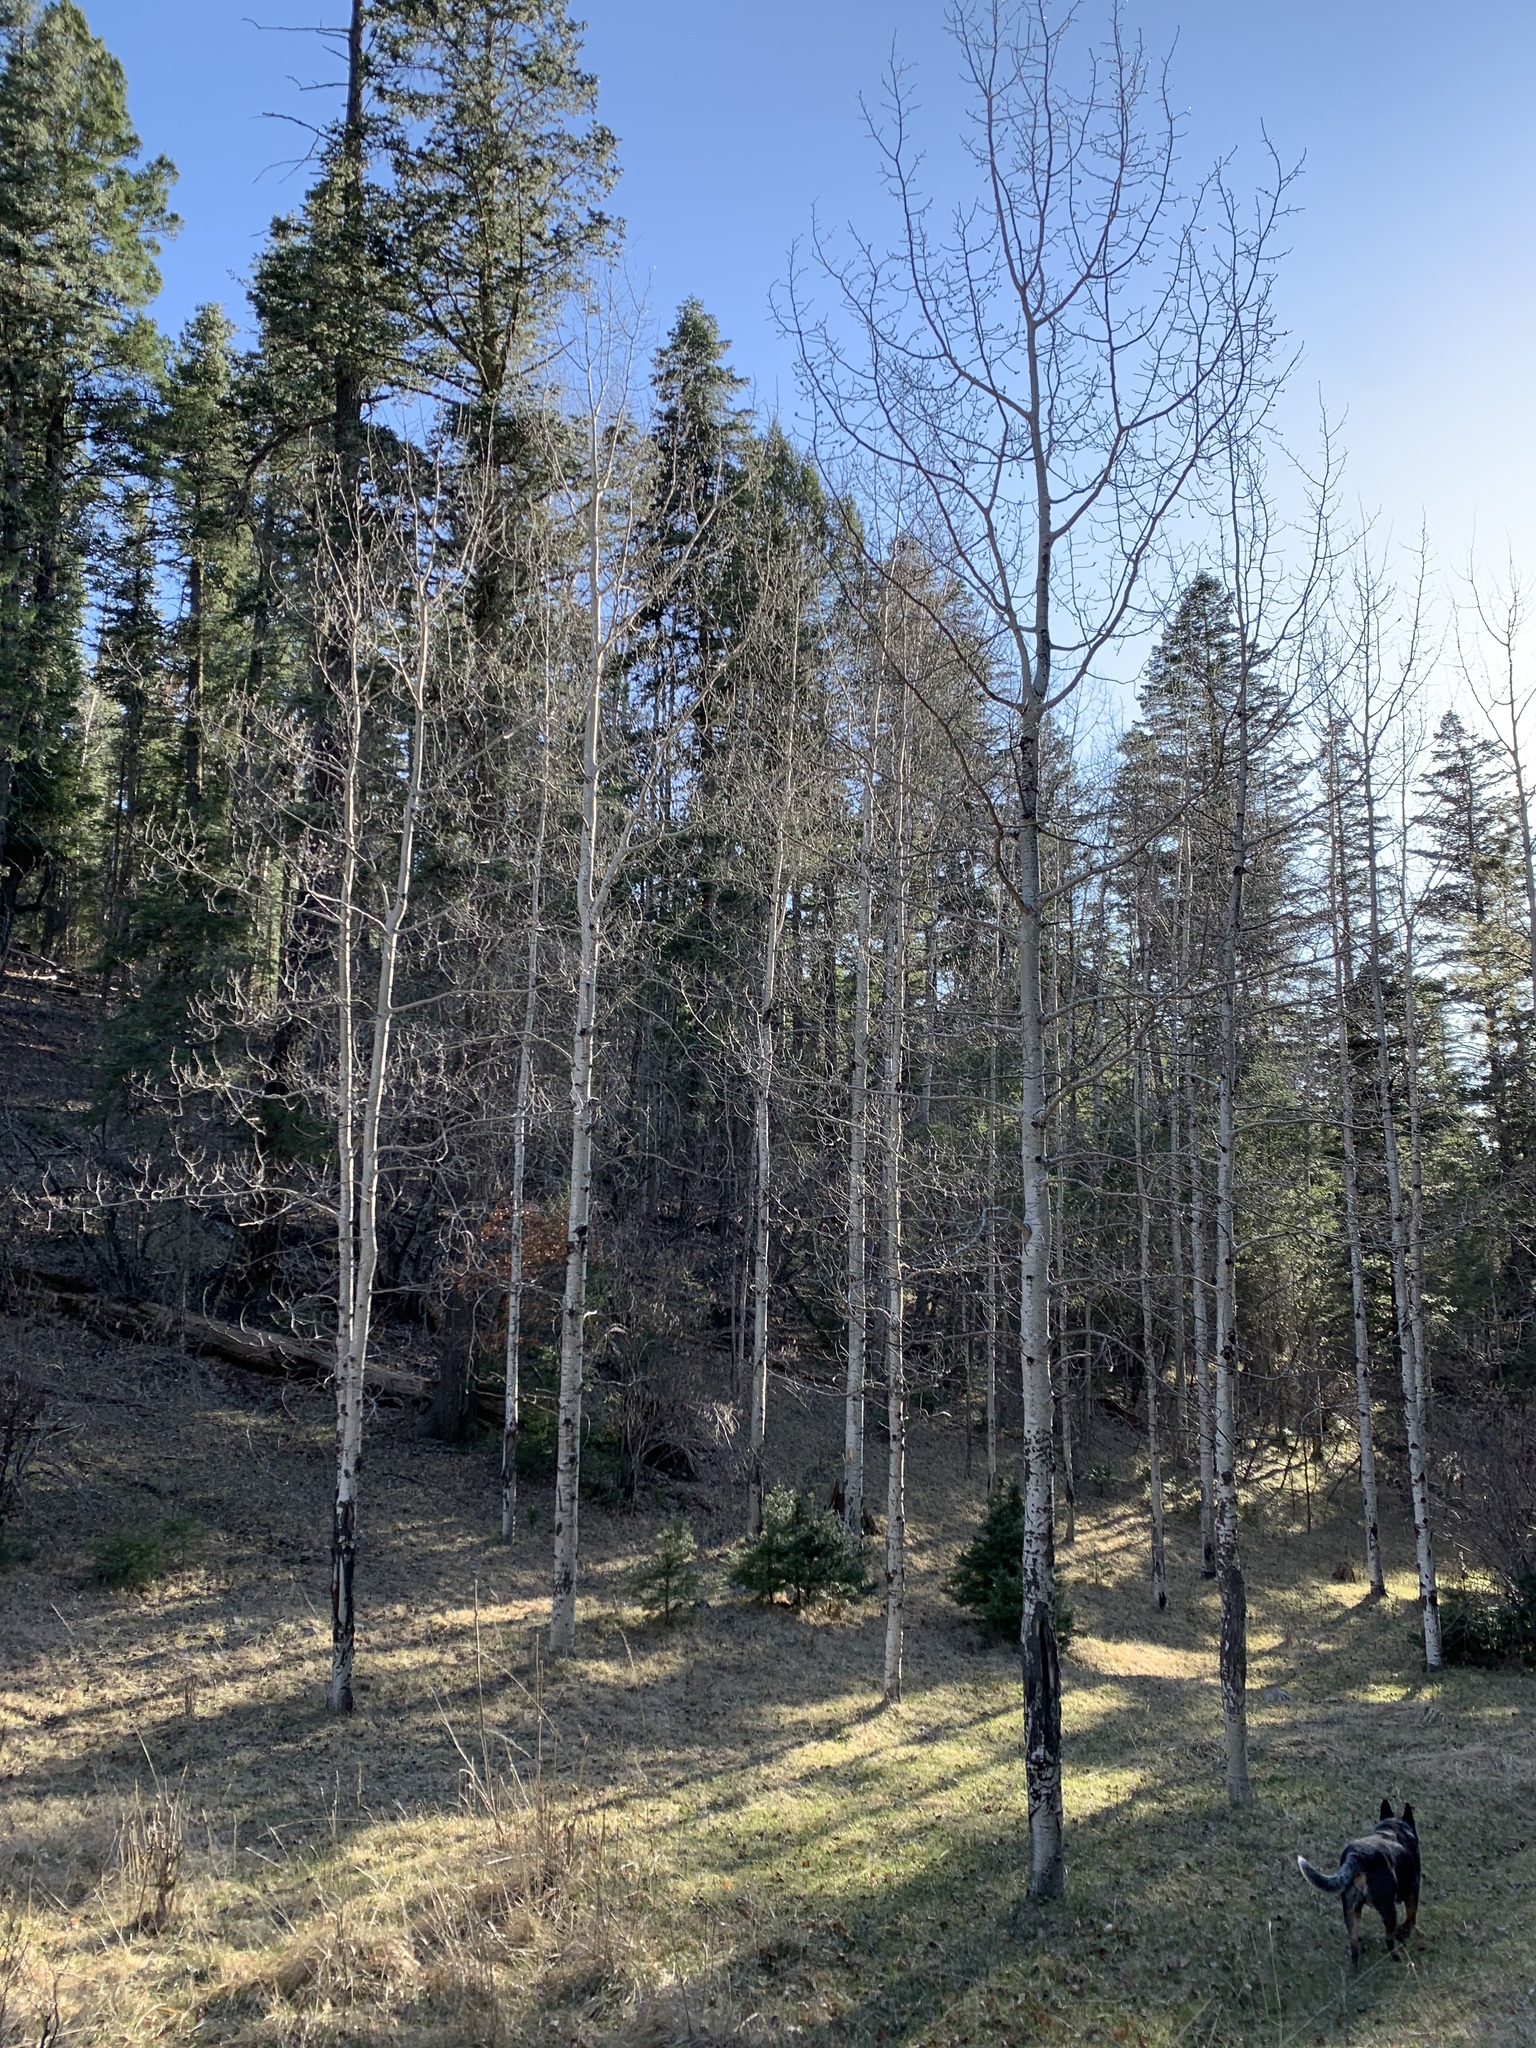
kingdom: Plantae
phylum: Tracheophyta
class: Magnoliopsida
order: Malpighiales
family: Salicaceae
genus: Populus
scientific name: Populus tremuloides
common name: Quaking aspen
